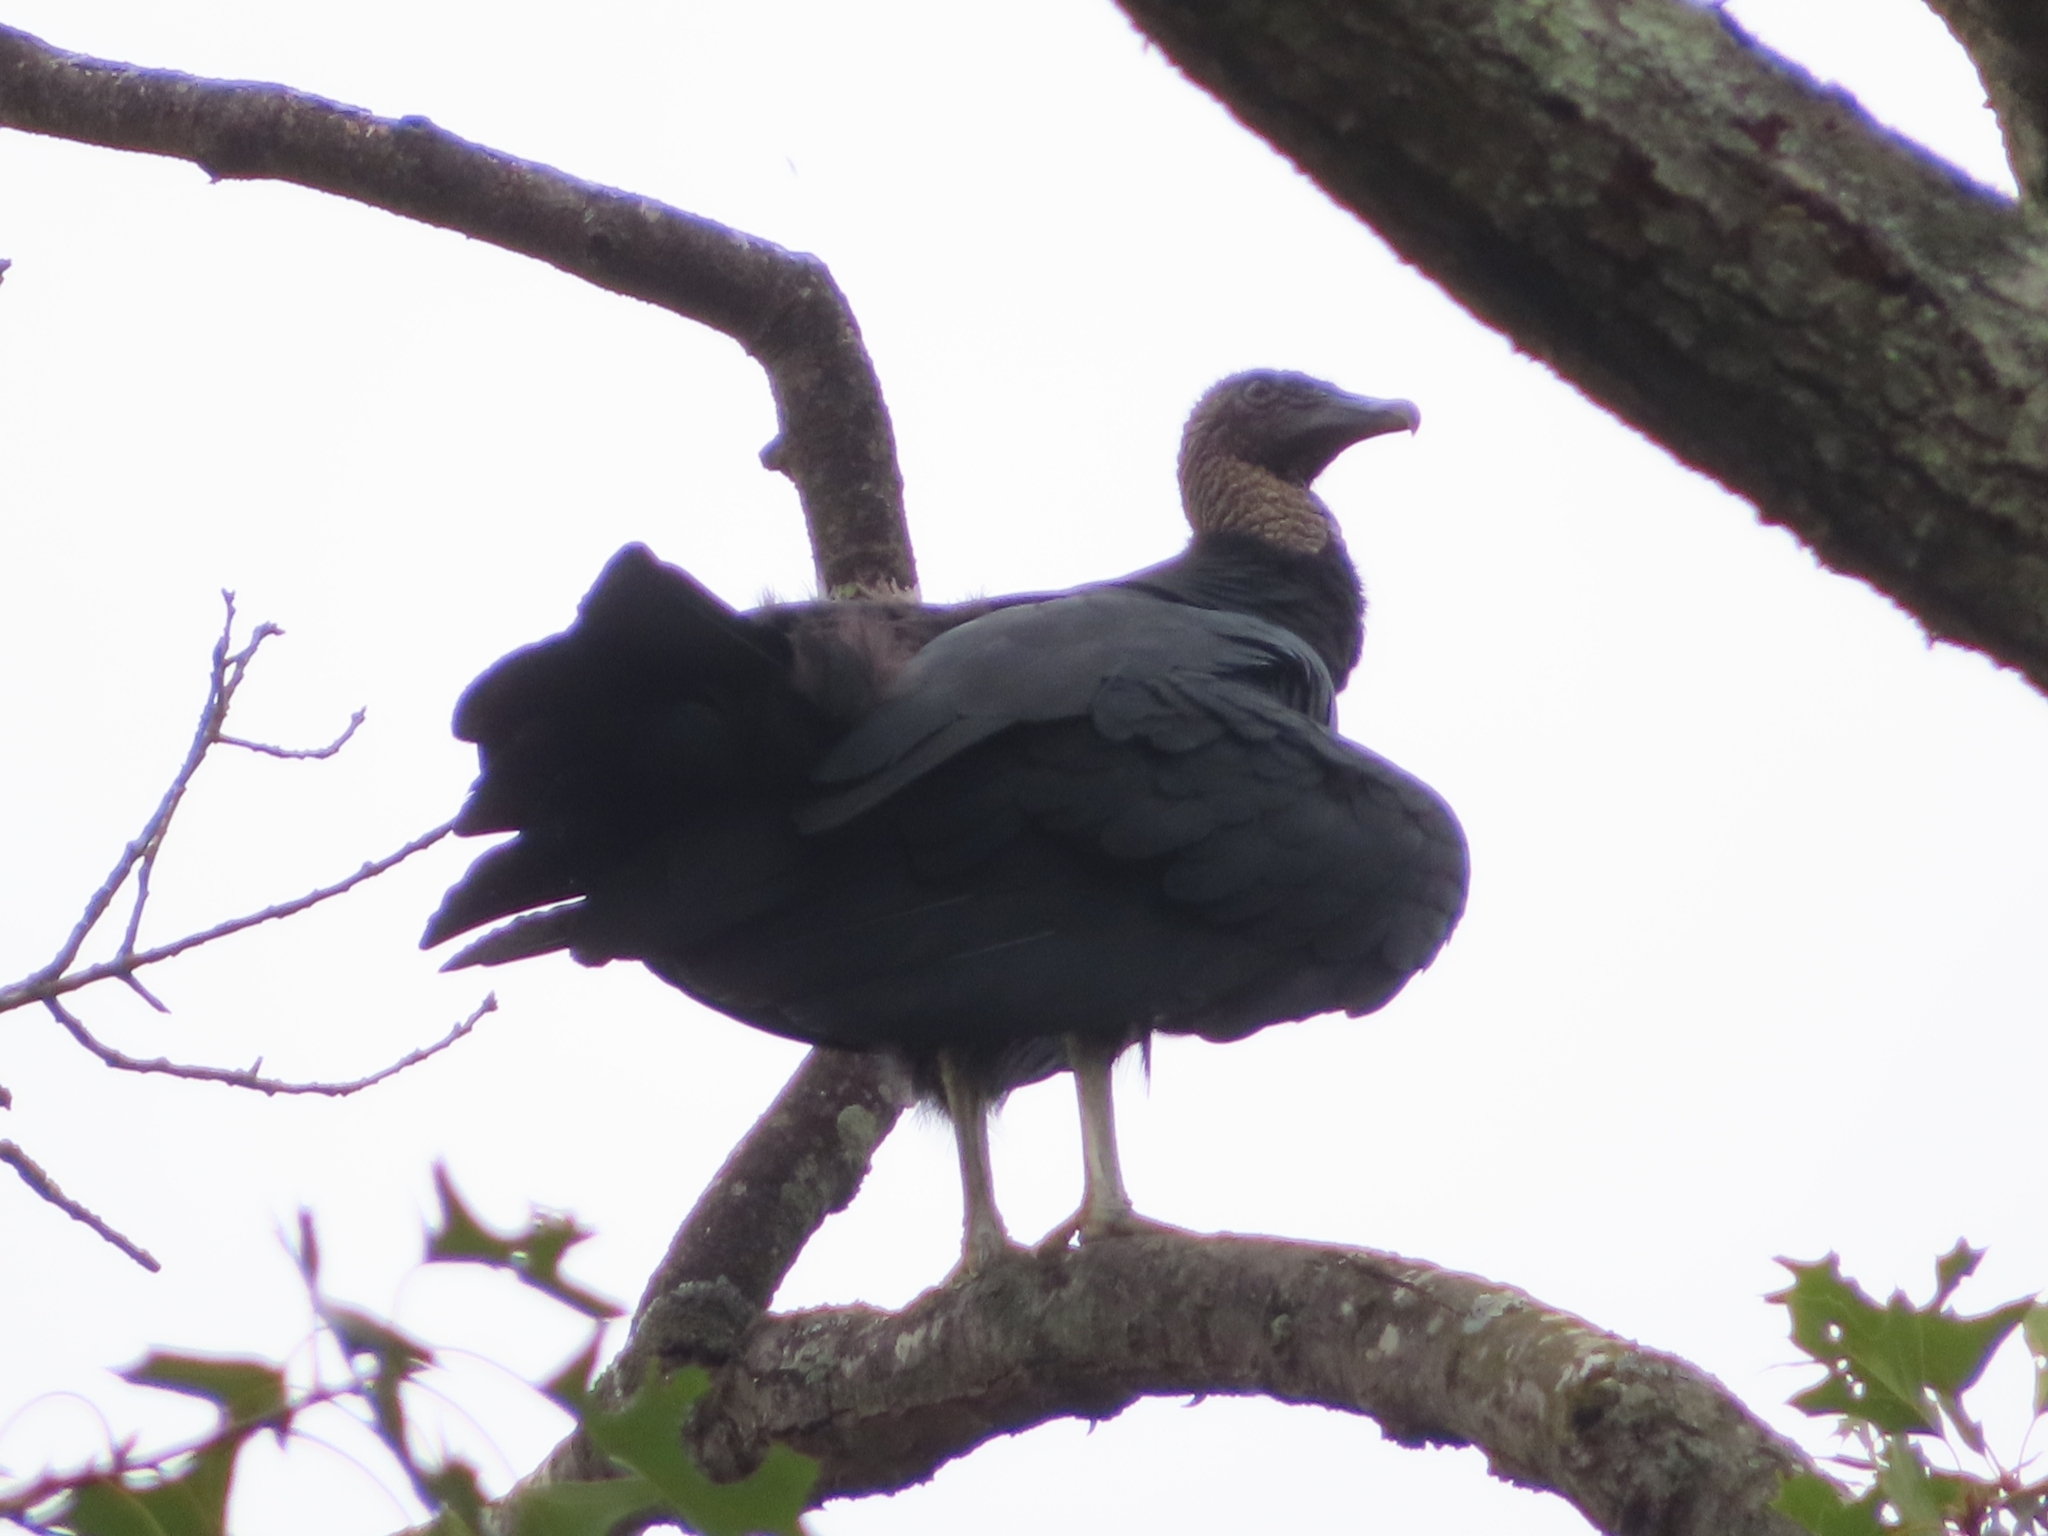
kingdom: Animalia
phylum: Chordata
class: Aves
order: Accipitriformes
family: Cathartidae
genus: Coragyps
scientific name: Coragyps atratus
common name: Black vulture
